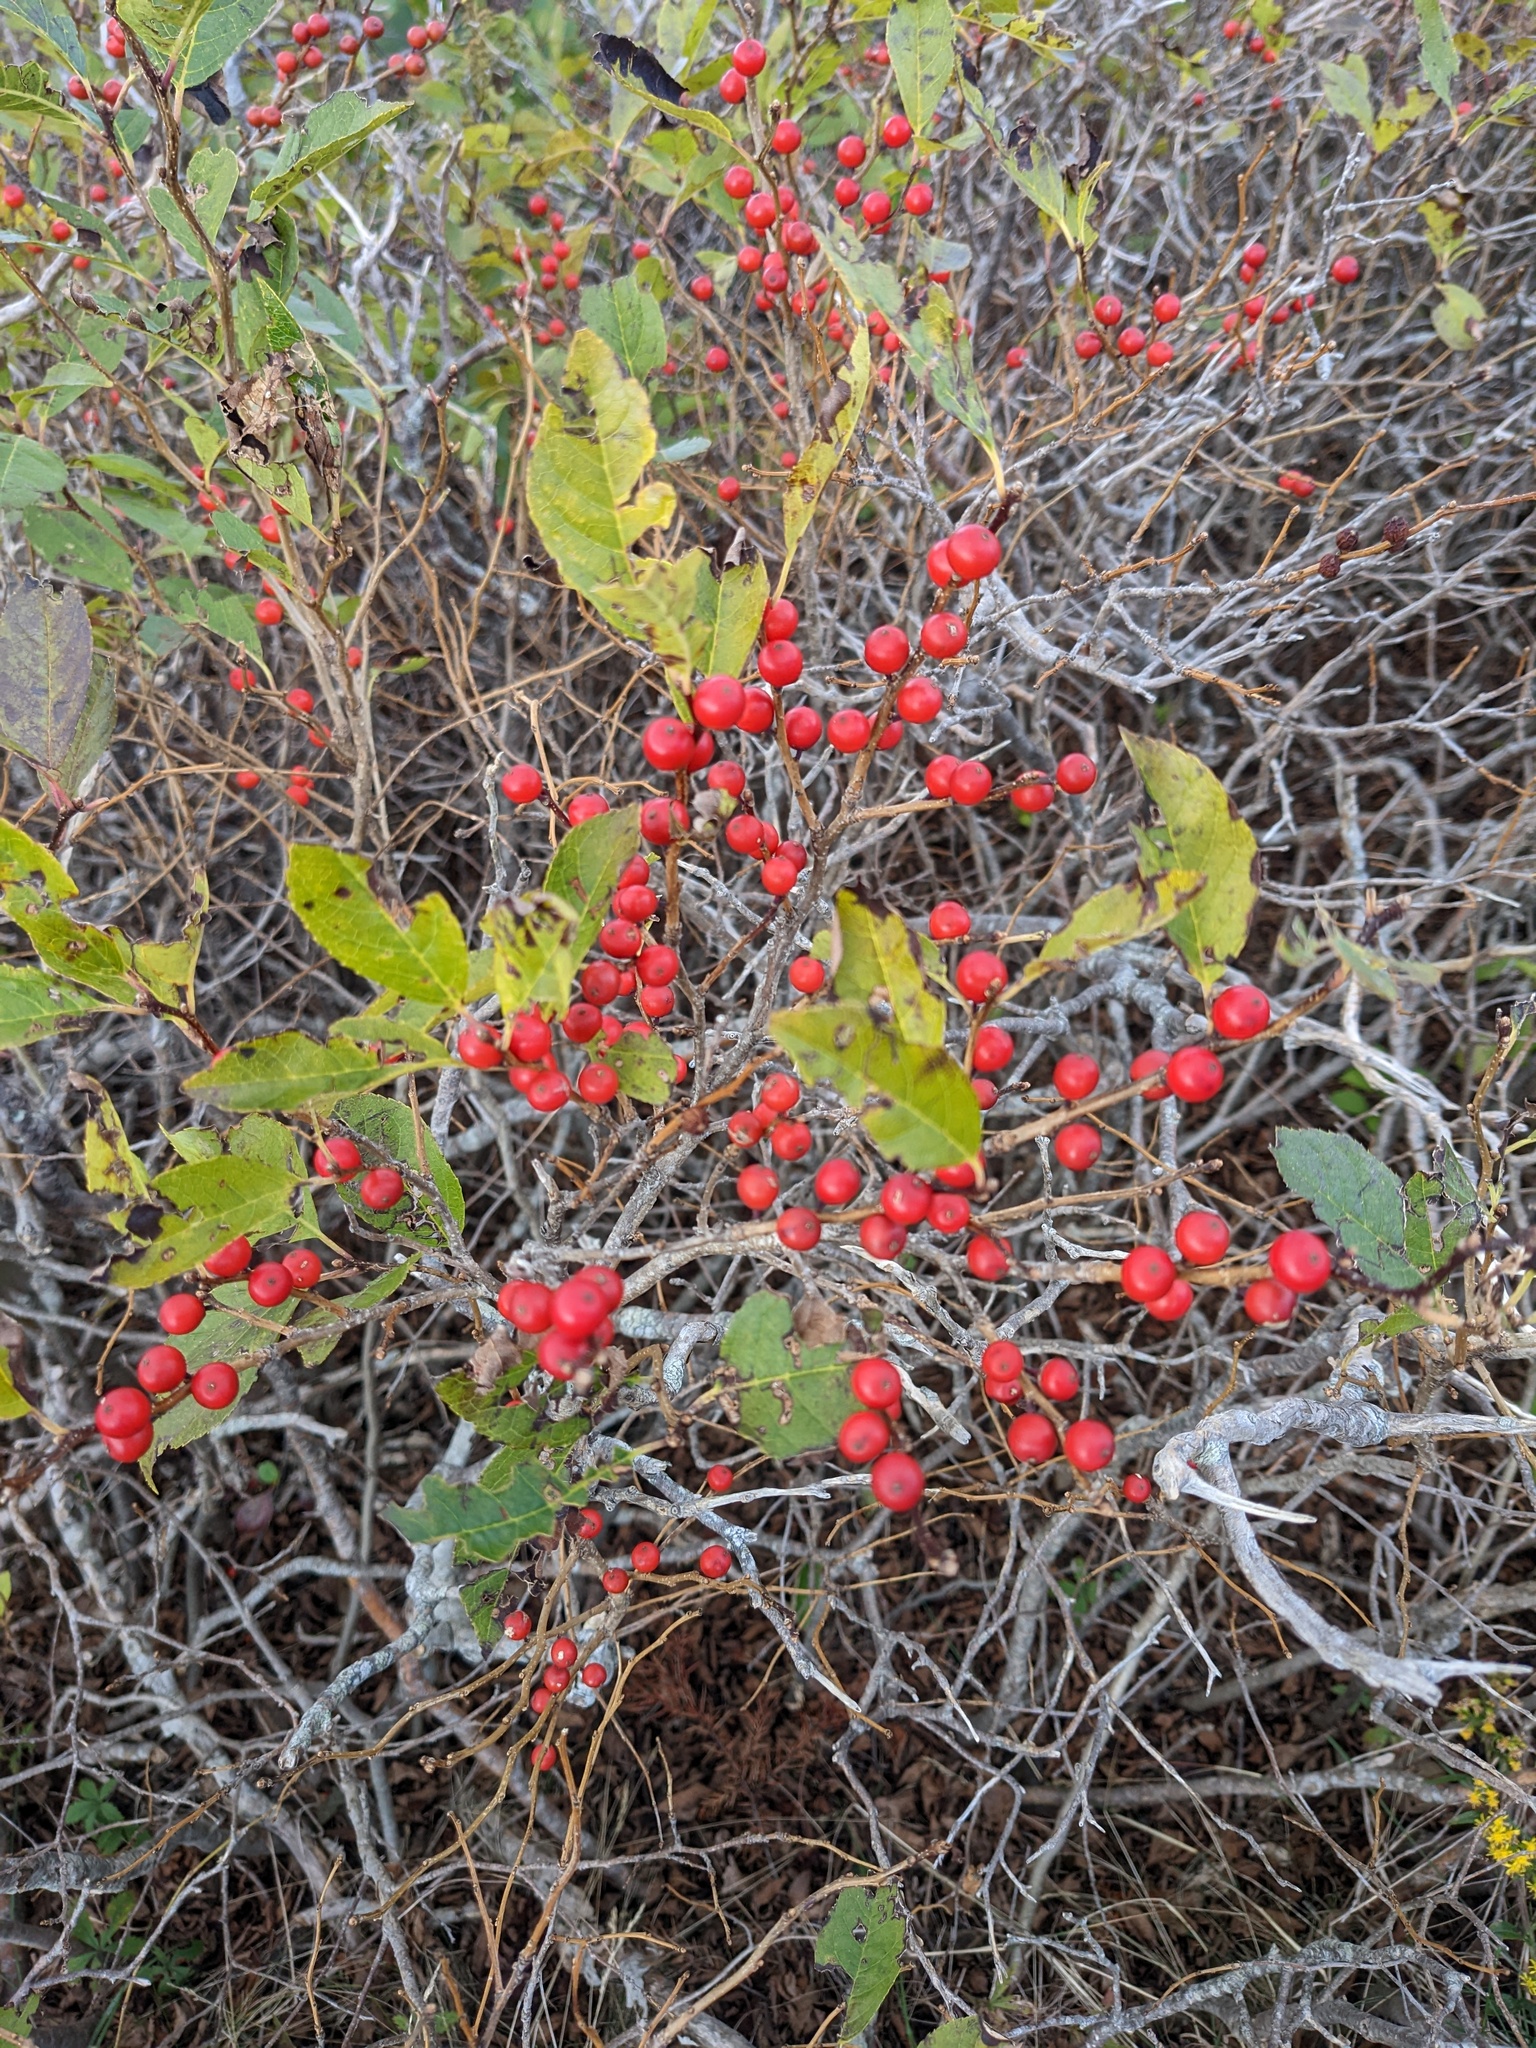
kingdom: Plantae
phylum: Tracheophyta
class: Magnoliopsida
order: Aquifoliales
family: Aquifoliaceae
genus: Ilex
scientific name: Ilex verticillata
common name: Virginia winterberry
